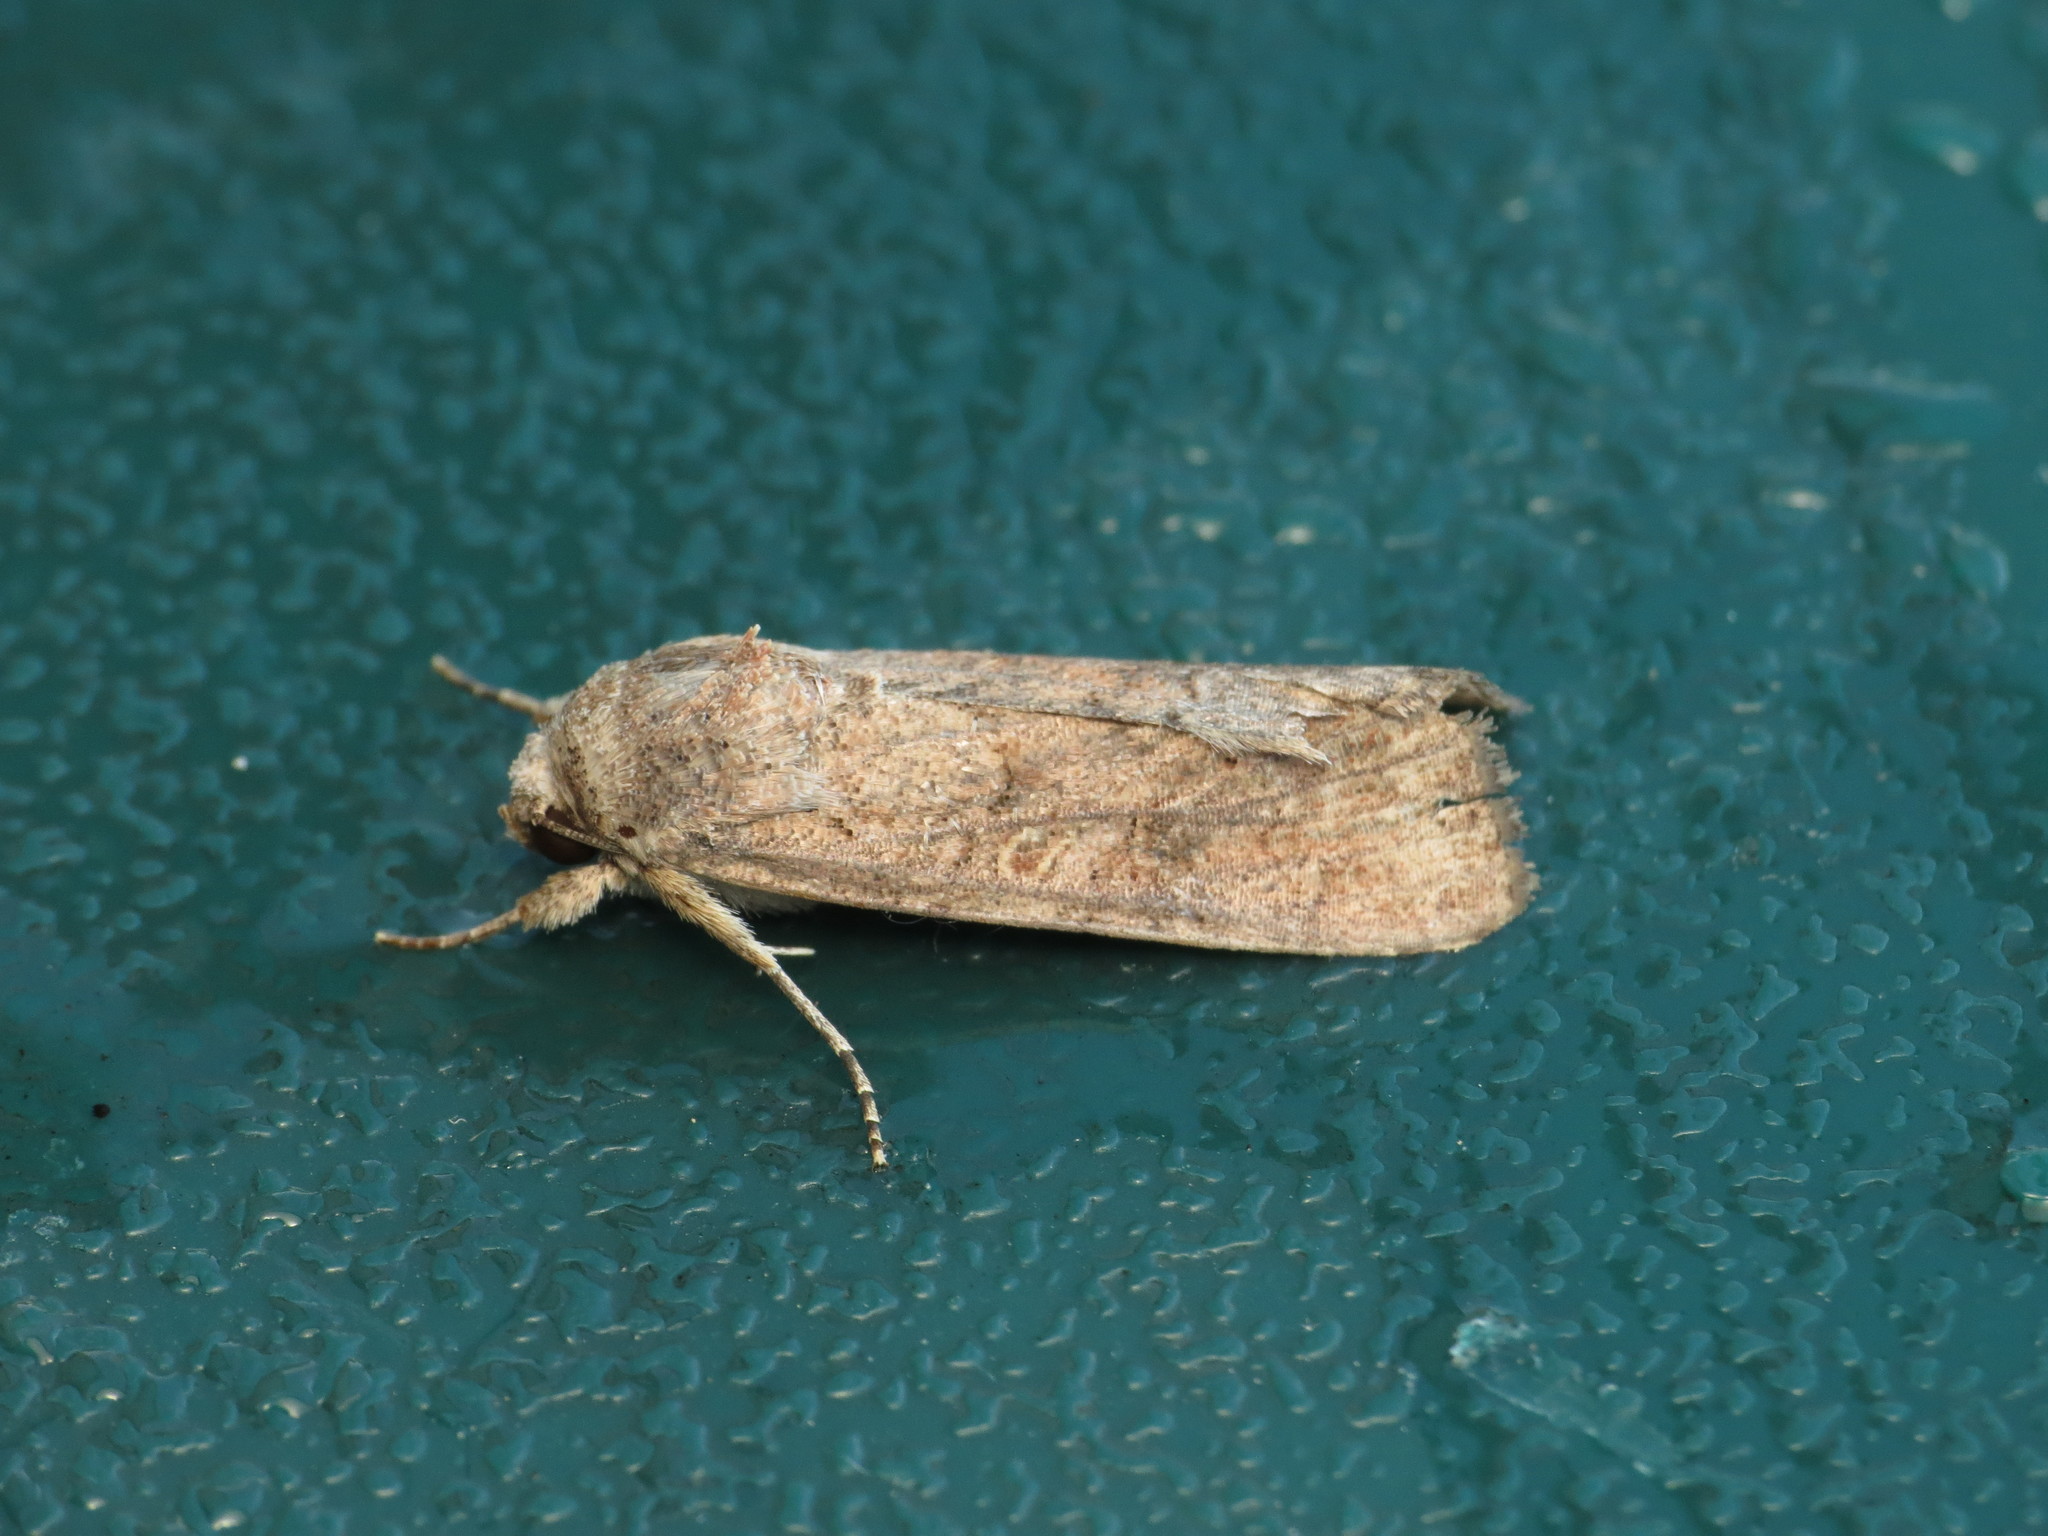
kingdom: Animalia
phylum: Arthropoda
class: Insecta
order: Lepidoptera
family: Noctuidae
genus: Spodoptera
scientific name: Spodoptera frugiperda
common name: Fall armyworm
